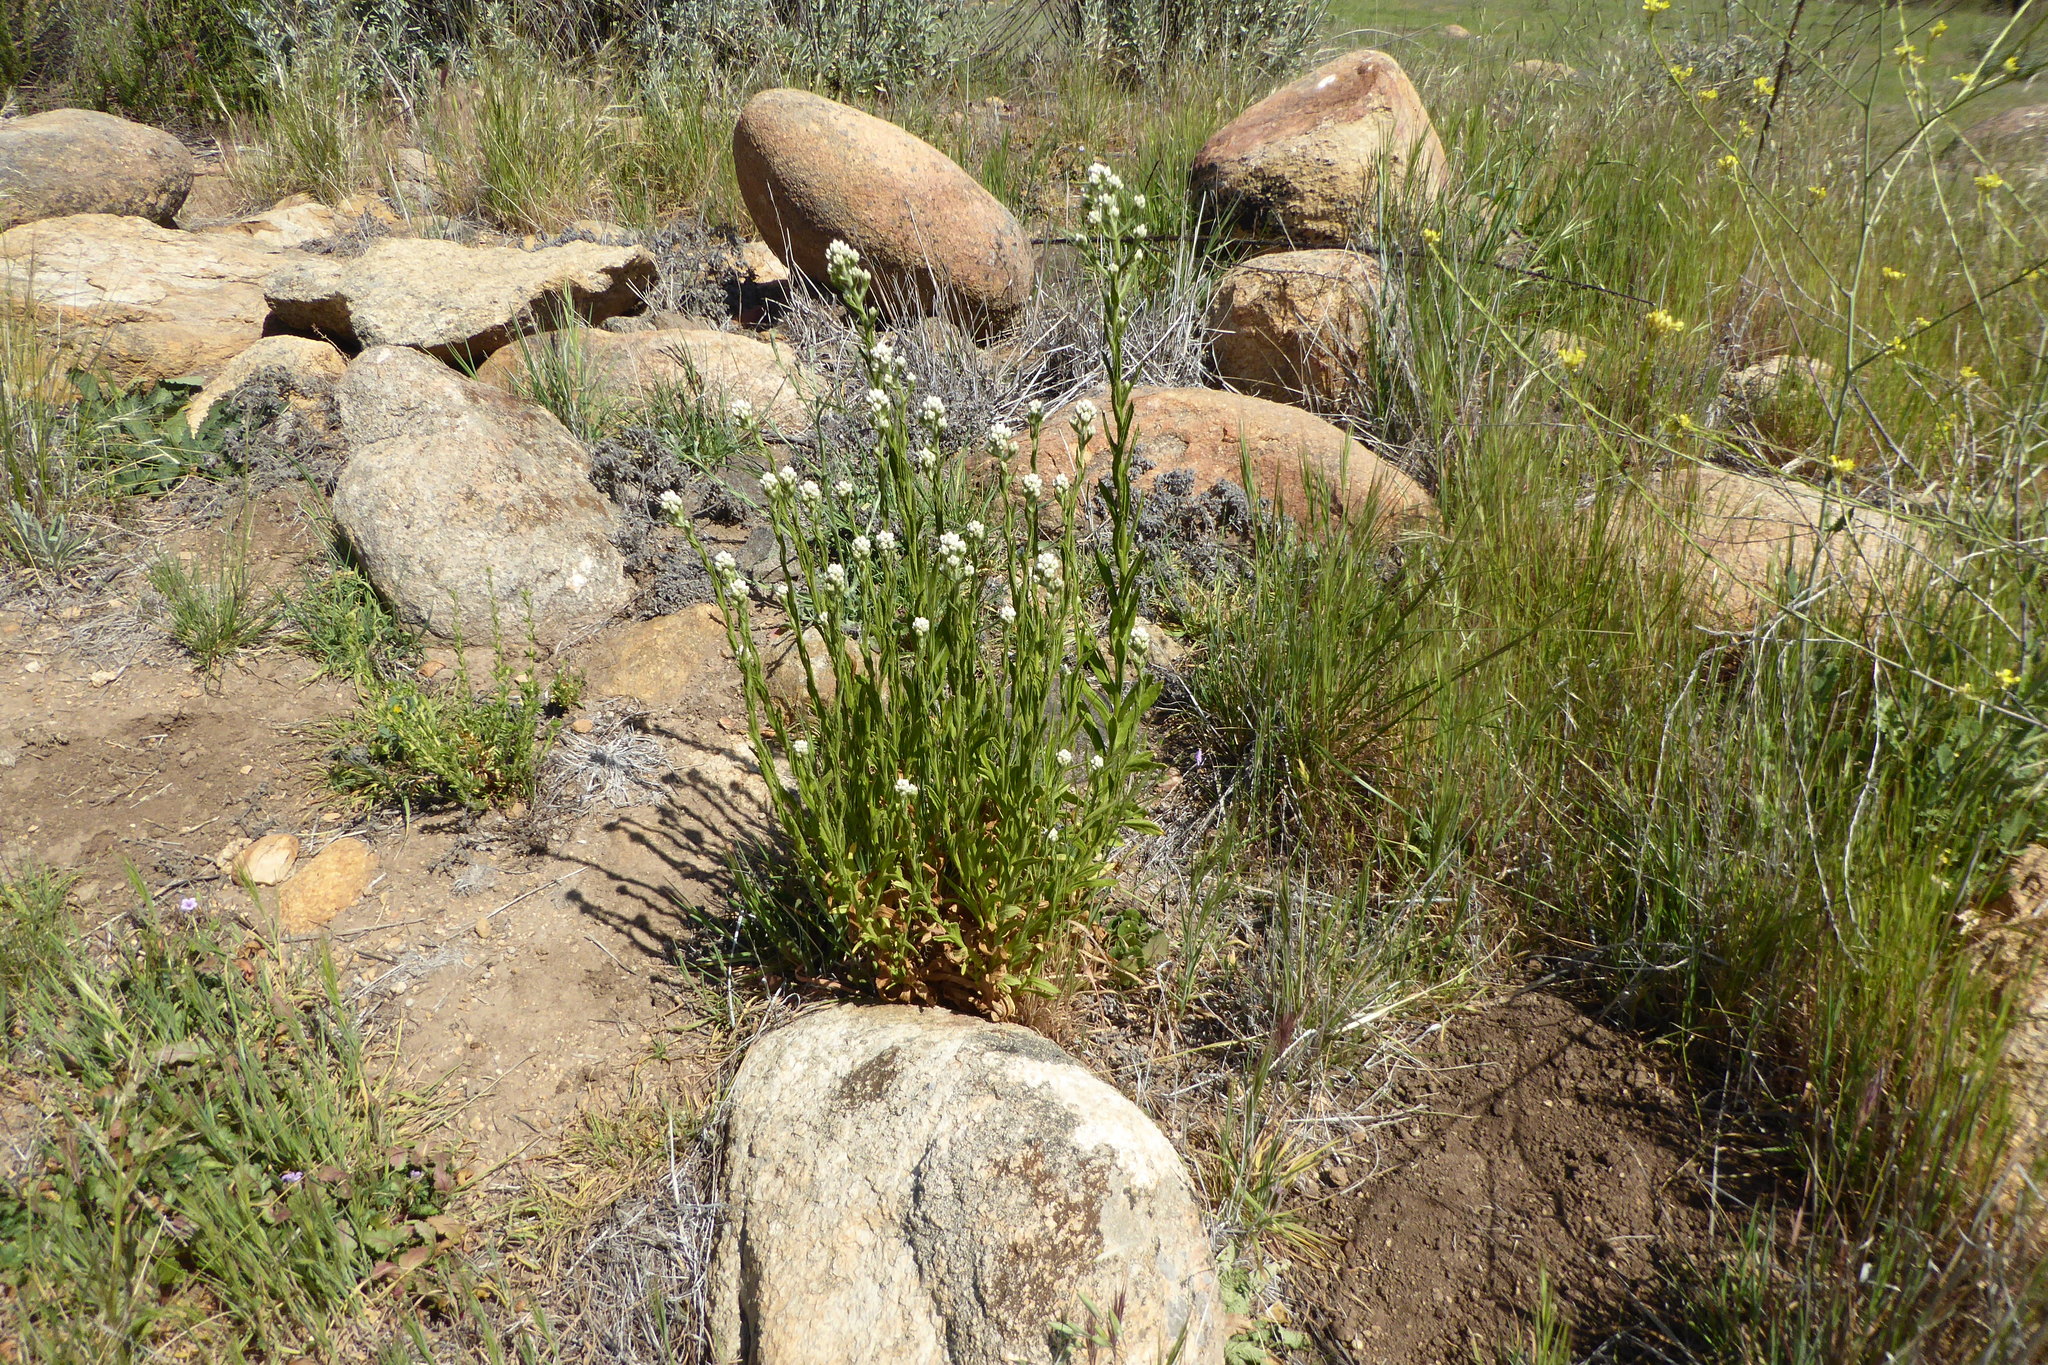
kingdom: Plantae
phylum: Tracheophyta
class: Magnoliopsida
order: Asterales
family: Asteraceae
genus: Pseudognaphalium
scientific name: Pseudognaphalium californicum
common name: California rabbit-tobacco
